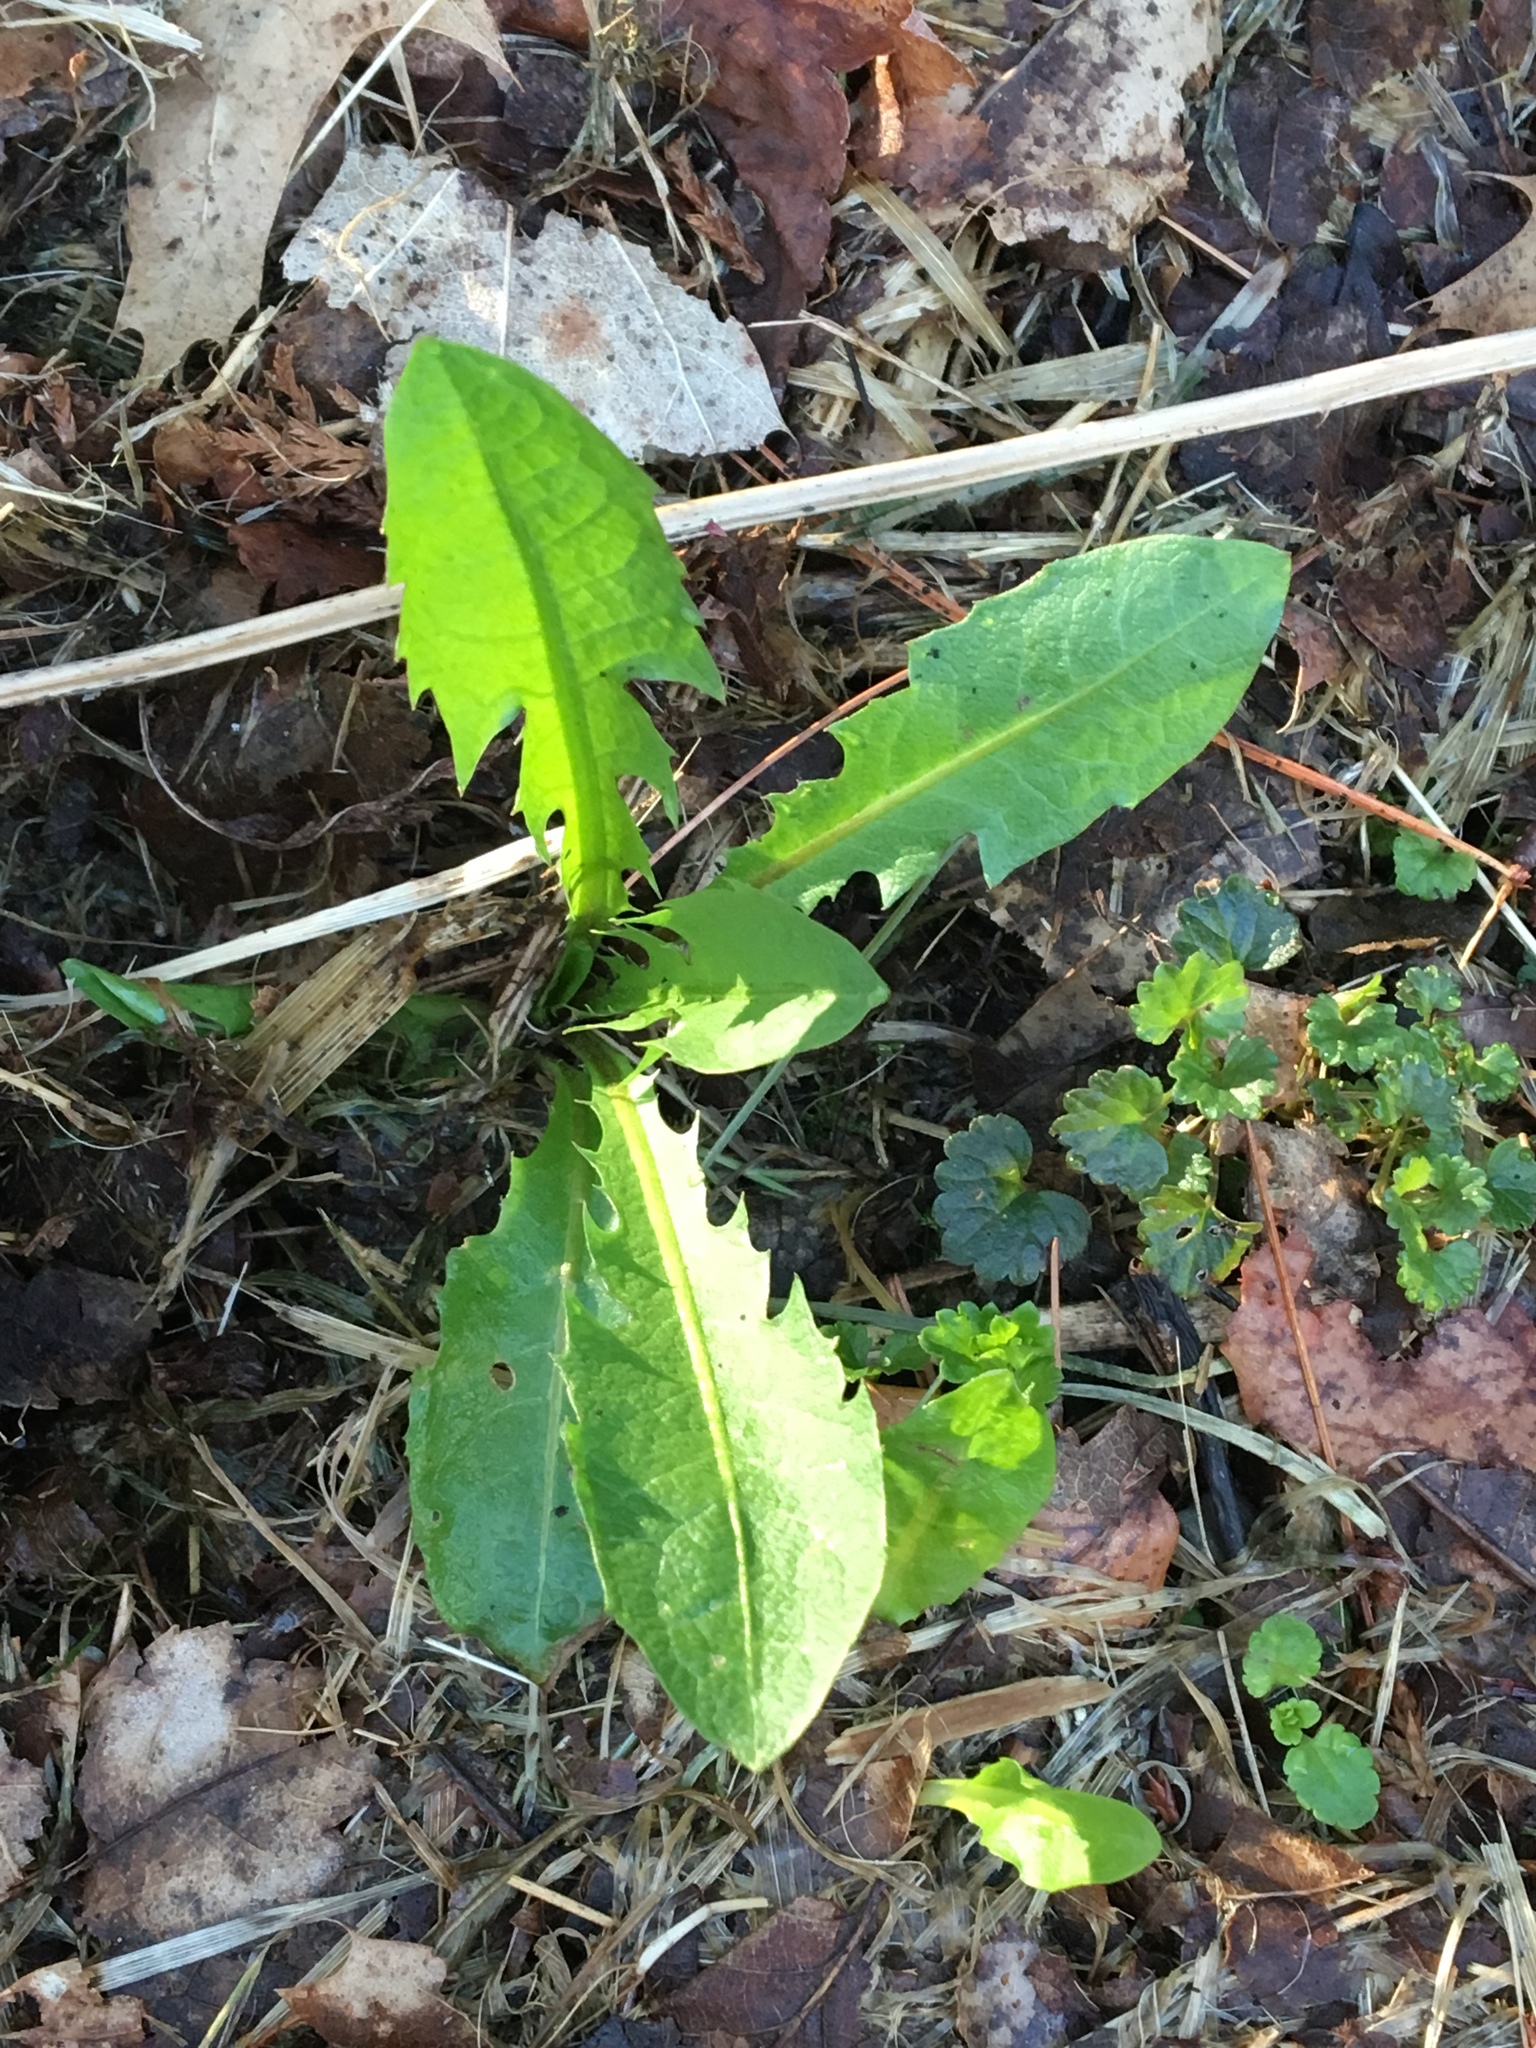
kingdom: Plantae
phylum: Tracheophyta
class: Magnoliopsida
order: Asterales
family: Asteraceae
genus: Taraxacum
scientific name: Taraxacum officinale
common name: Common dandelion
